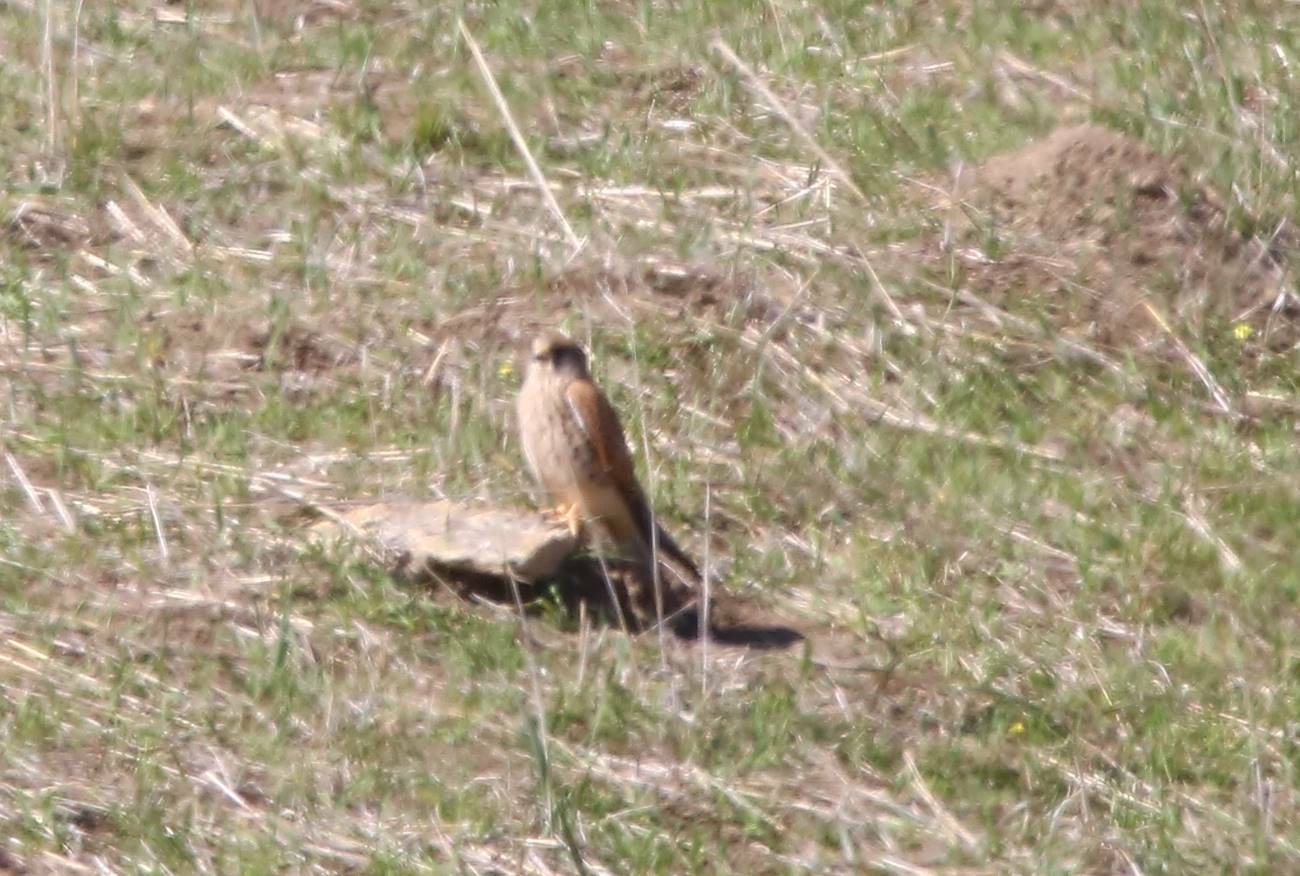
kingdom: Animalia
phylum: Chordata
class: Aves
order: Falconiformes
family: Falconidae
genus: Falco
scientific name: Falco tinnunculus
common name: Common kestrel
